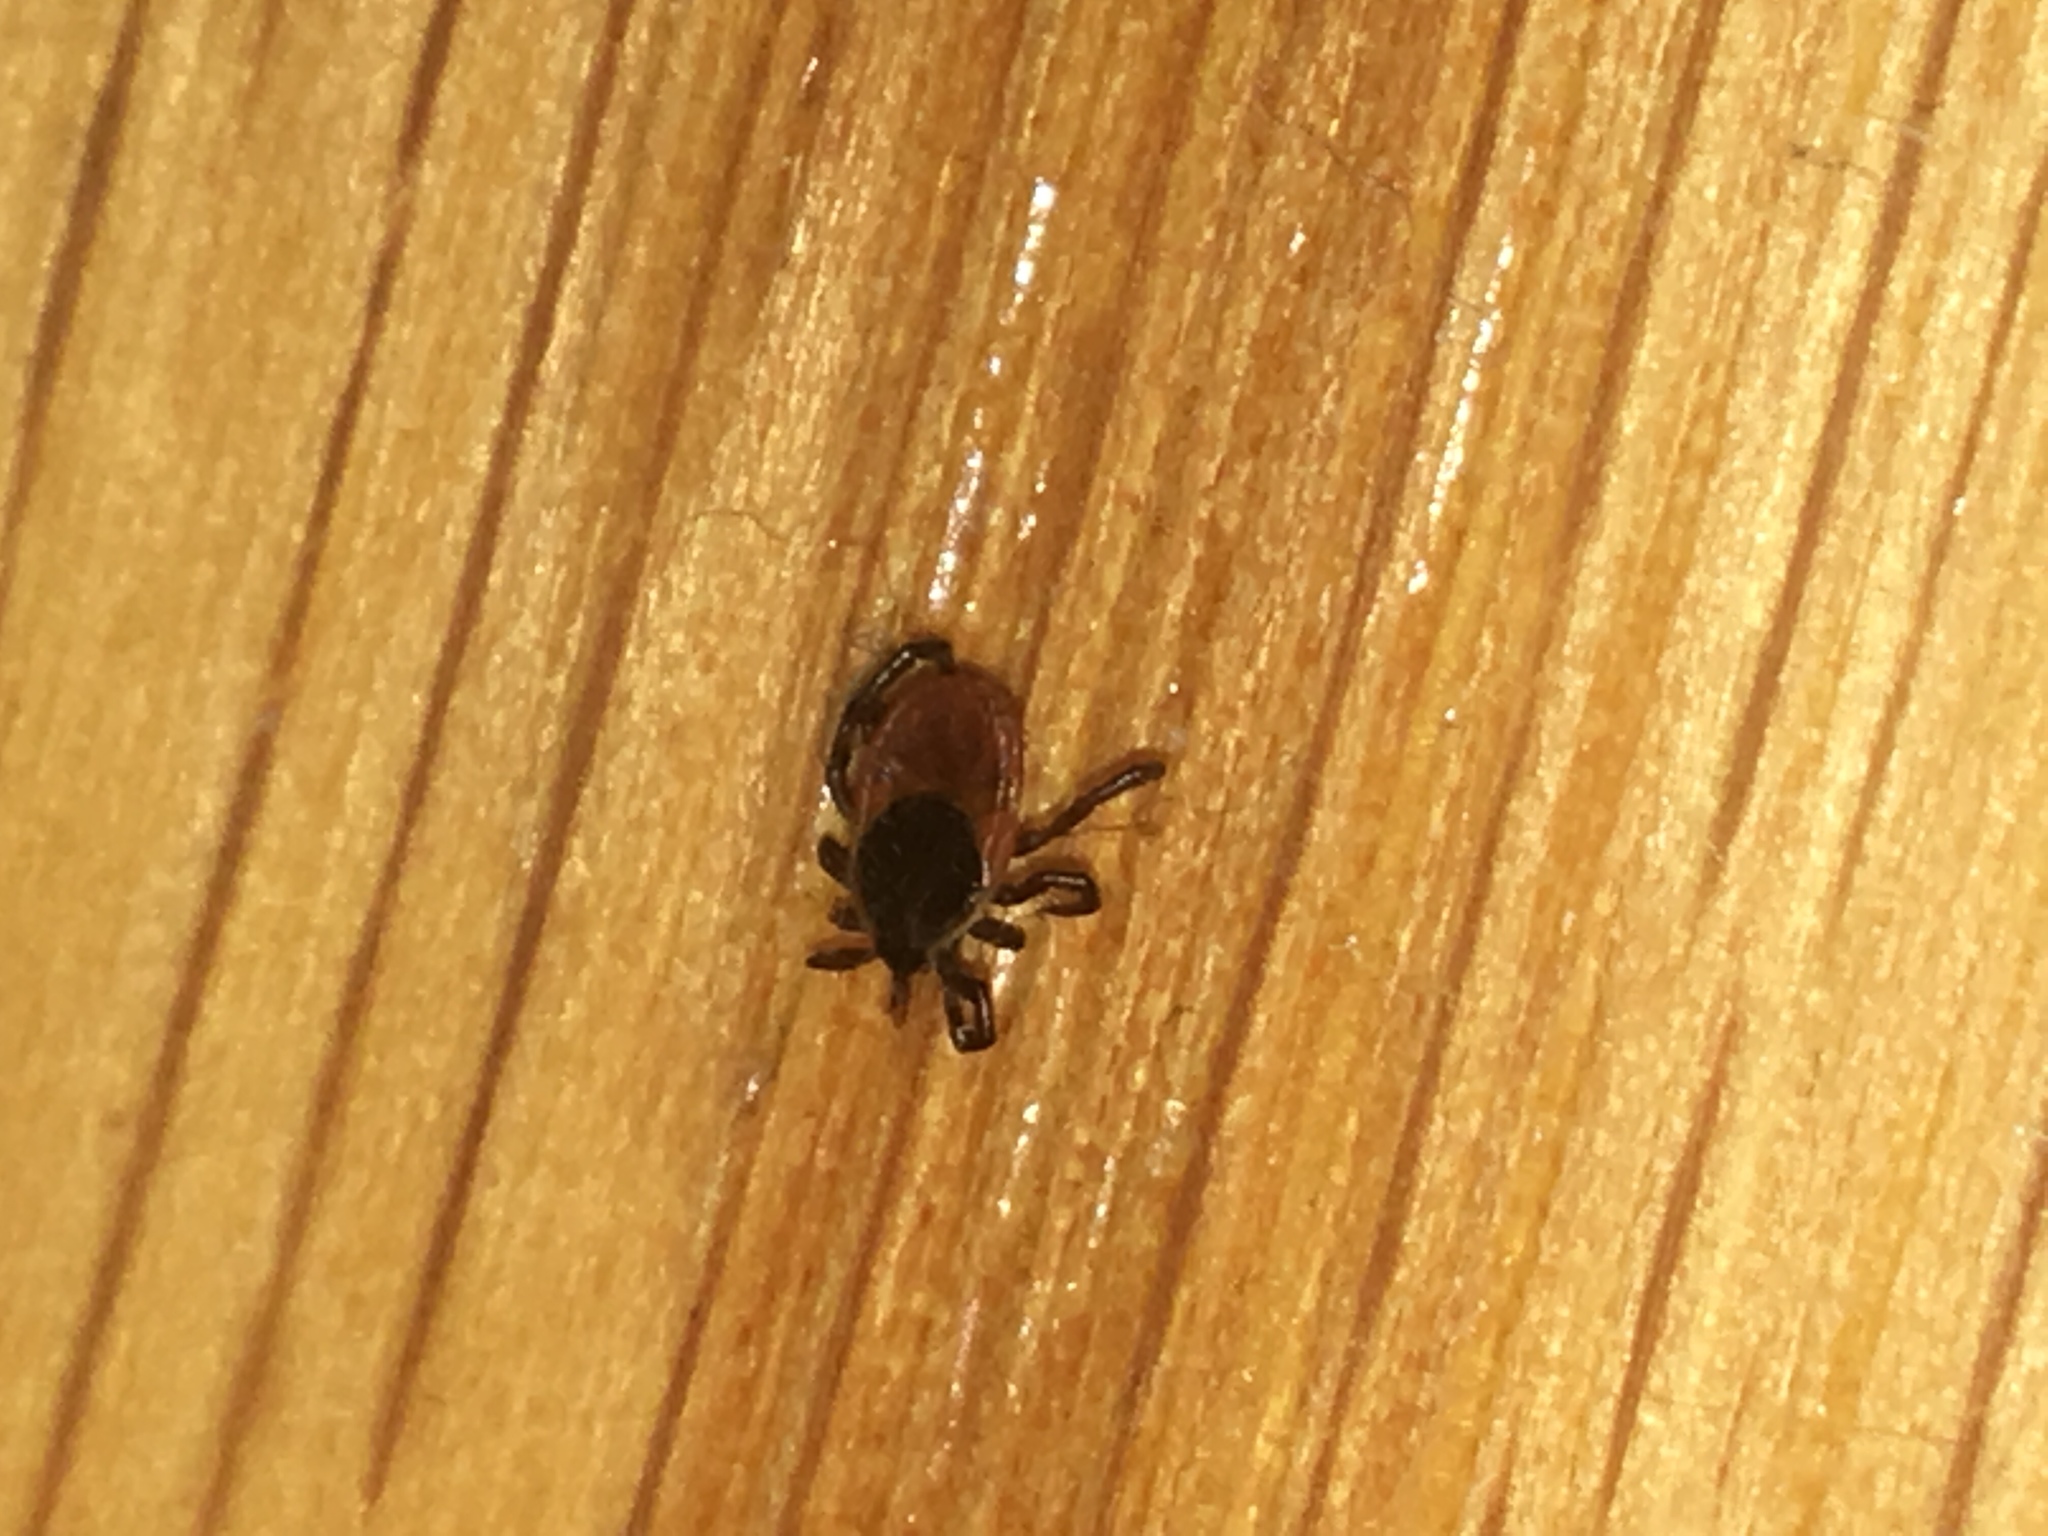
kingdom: Animalia
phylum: Arthropoda
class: Arachnida
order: Ixodida
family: Ixodidae
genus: Ixodes
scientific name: Ixodes scapularis
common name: Black legged tick
